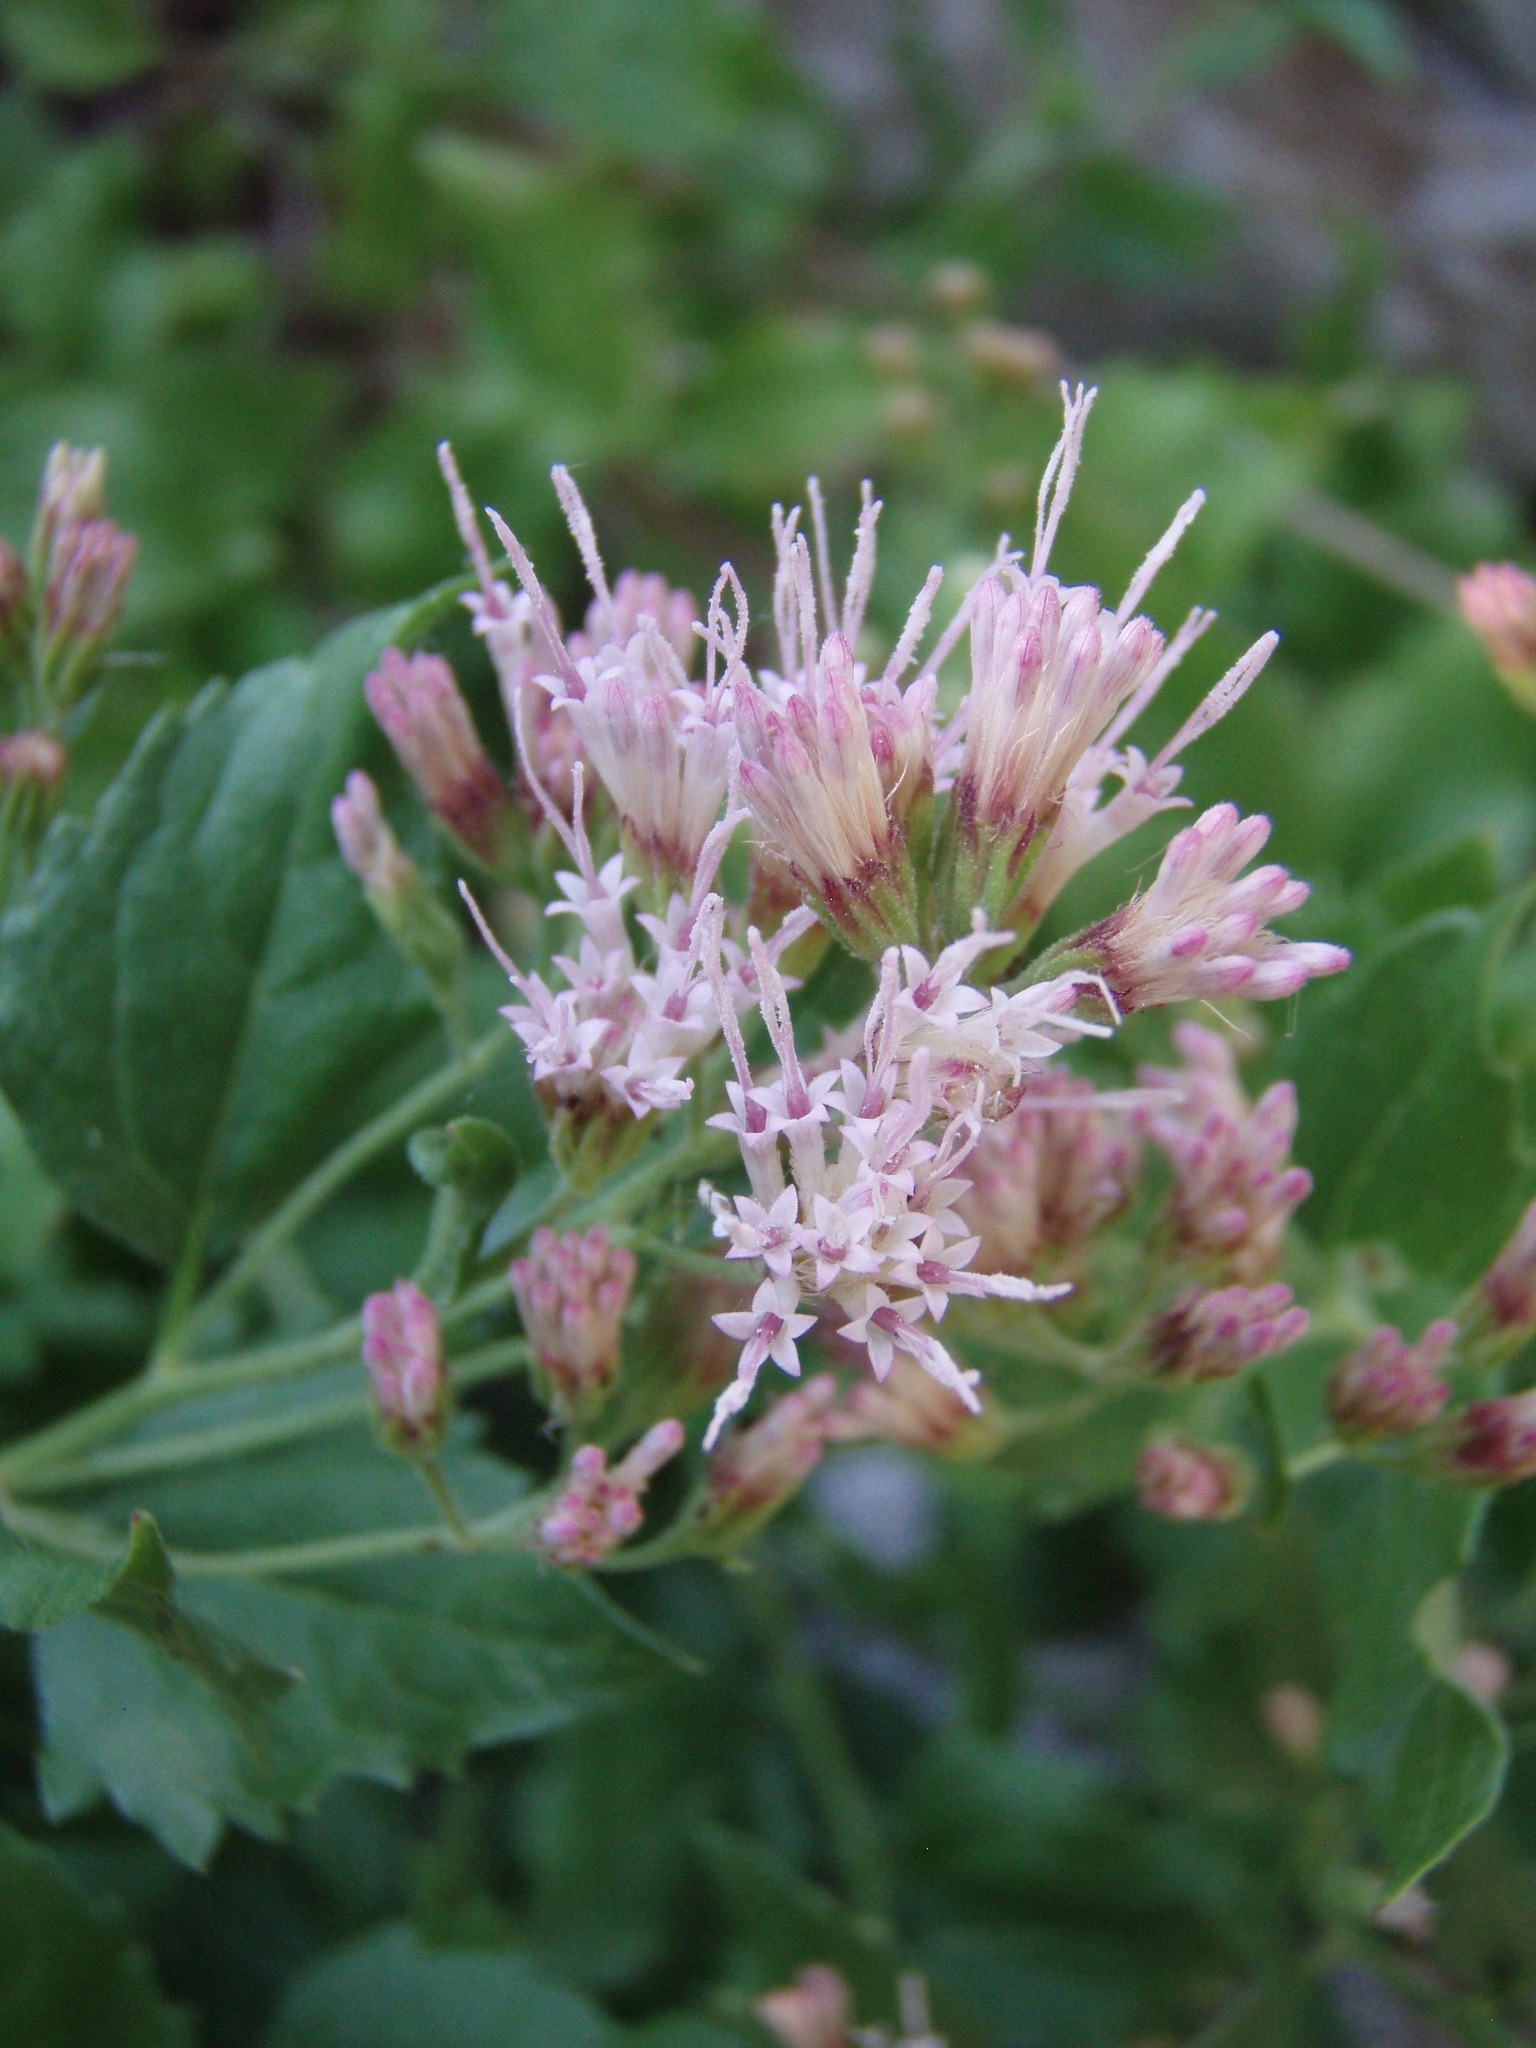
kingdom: Plantae
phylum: Tracheophyta
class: Magnoliopsida
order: Asterales
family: Asteraceae
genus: Ageratina
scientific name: Ageratina occidentalis
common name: Western snakeroot
